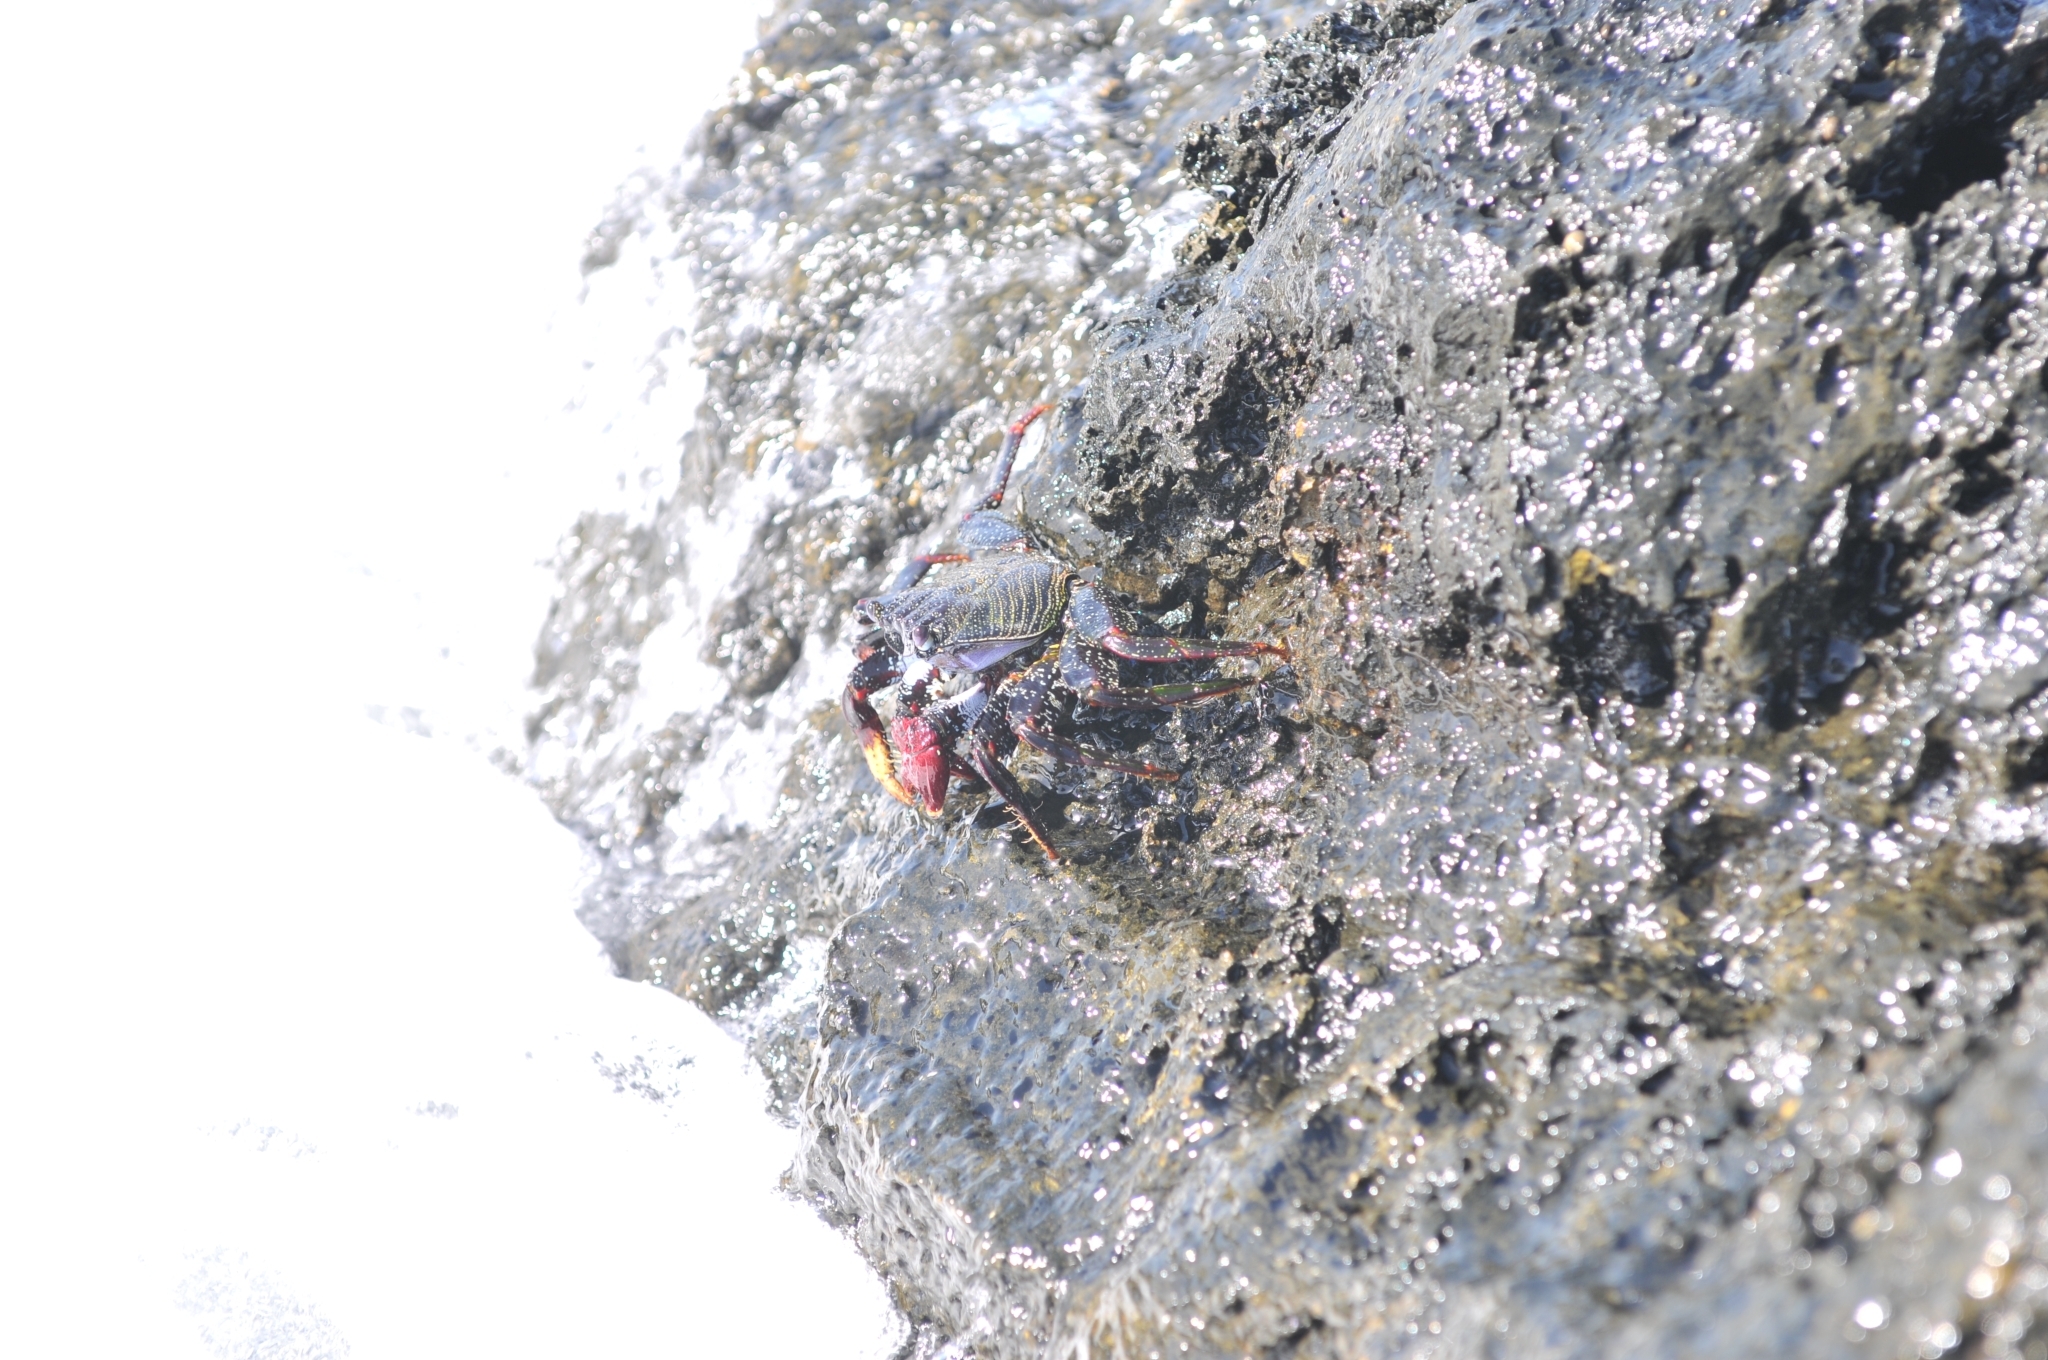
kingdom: Animalia
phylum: Arthropoda
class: Malacostraca
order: Decapoda
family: Grapsidae
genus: Grapsus
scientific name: Grapsus adscensionis
